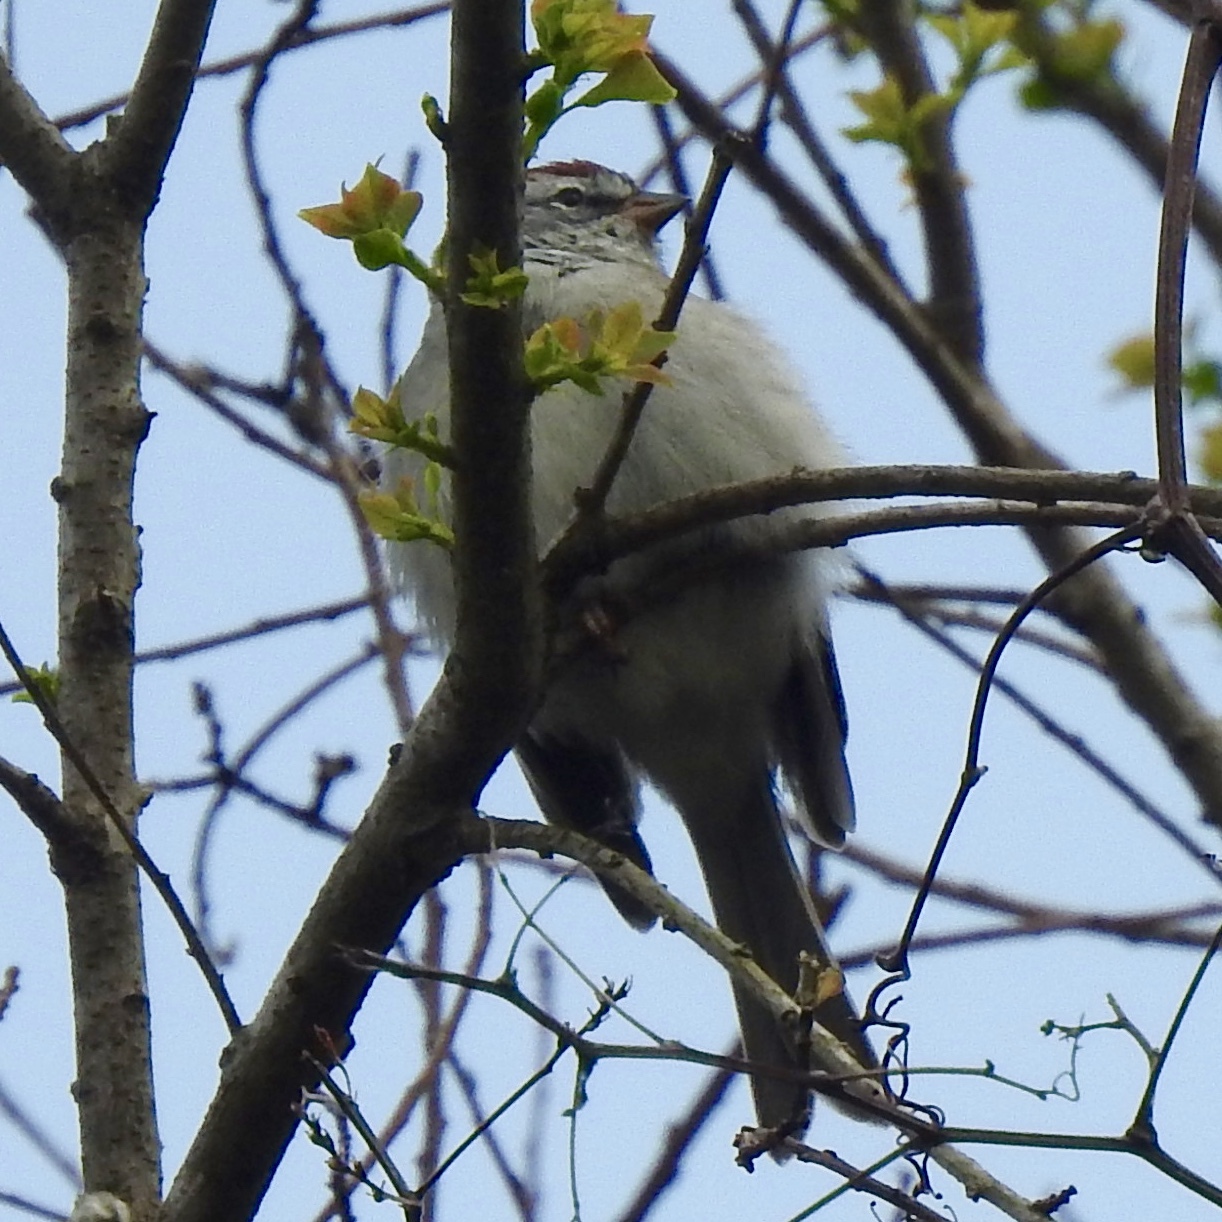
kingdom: Animalia
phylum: Chordata
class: Aves
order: Passeriformes
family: Passerellidae
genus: Spizella
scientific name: Spizella passerina
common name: Chipping sparrow
